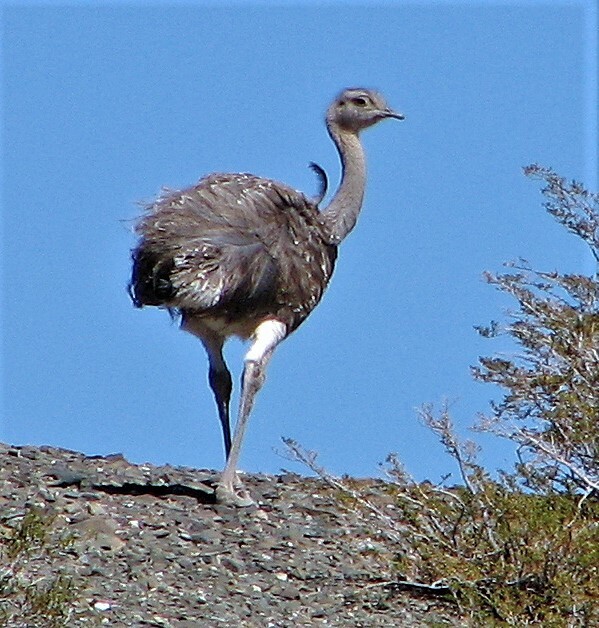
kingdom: Animalia
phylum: Chordata
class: Aves
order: Rheiformes
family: Rheidae
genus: Rhea
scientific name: Rhea pennata
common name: Lesser rhea
